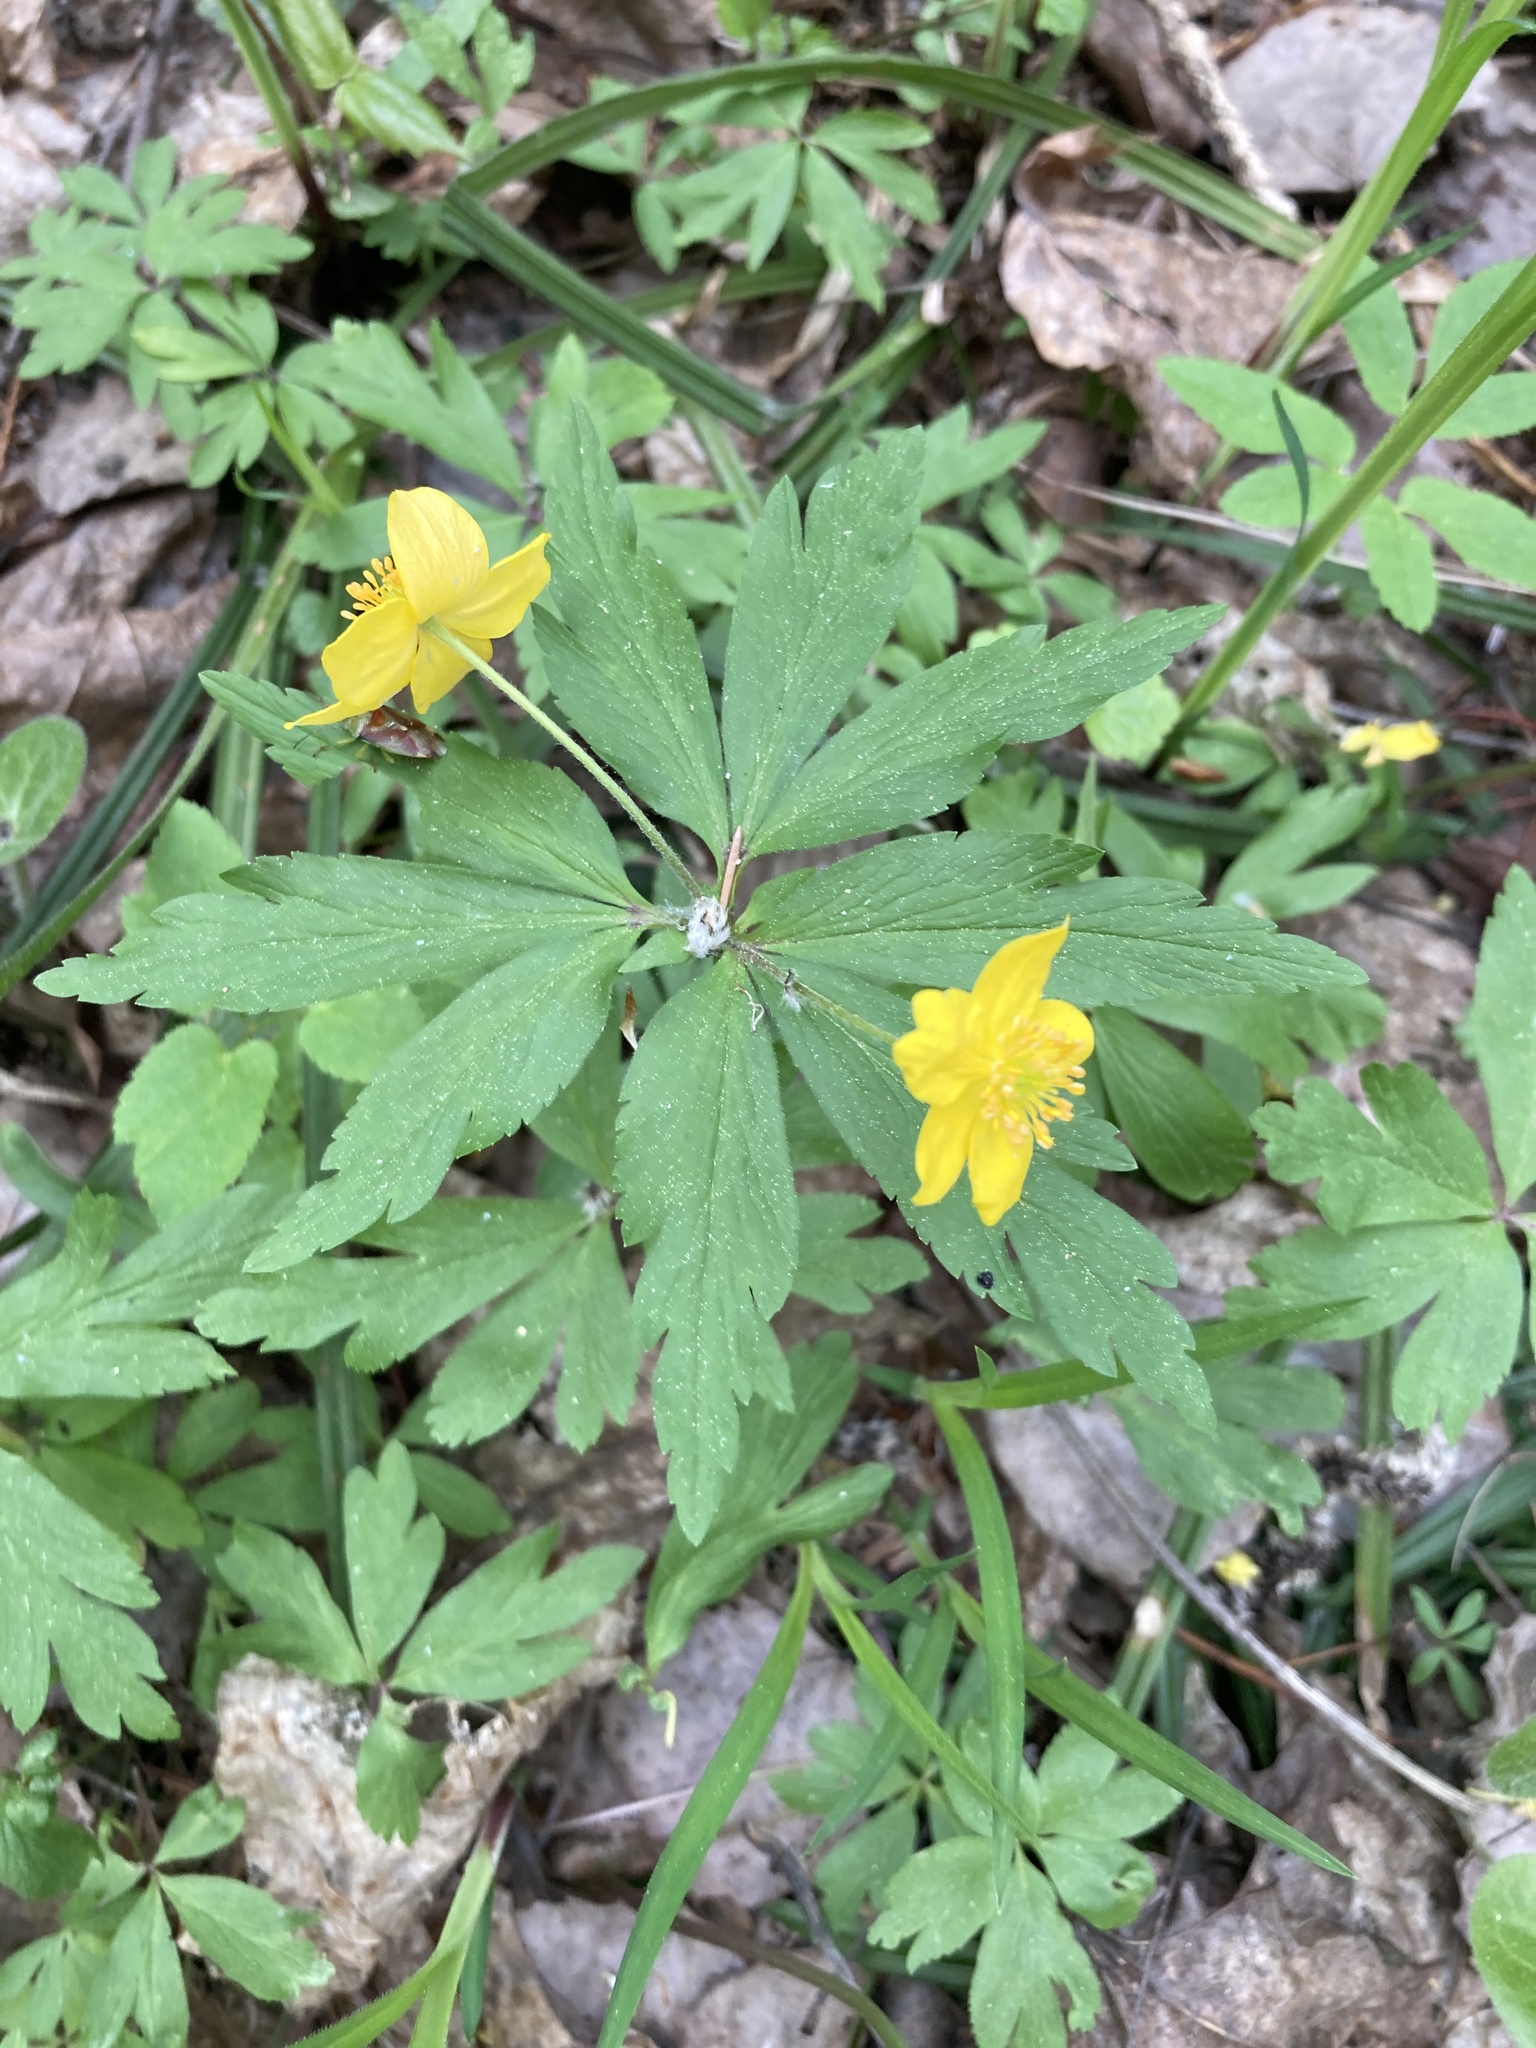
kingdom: Plantae
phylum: Tracheophyta
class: Magnoliopsida
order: Ranunculales
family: Ranunculaceae
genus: Anemone
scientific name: Anemone ranunculoides
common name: Yellow anemone
